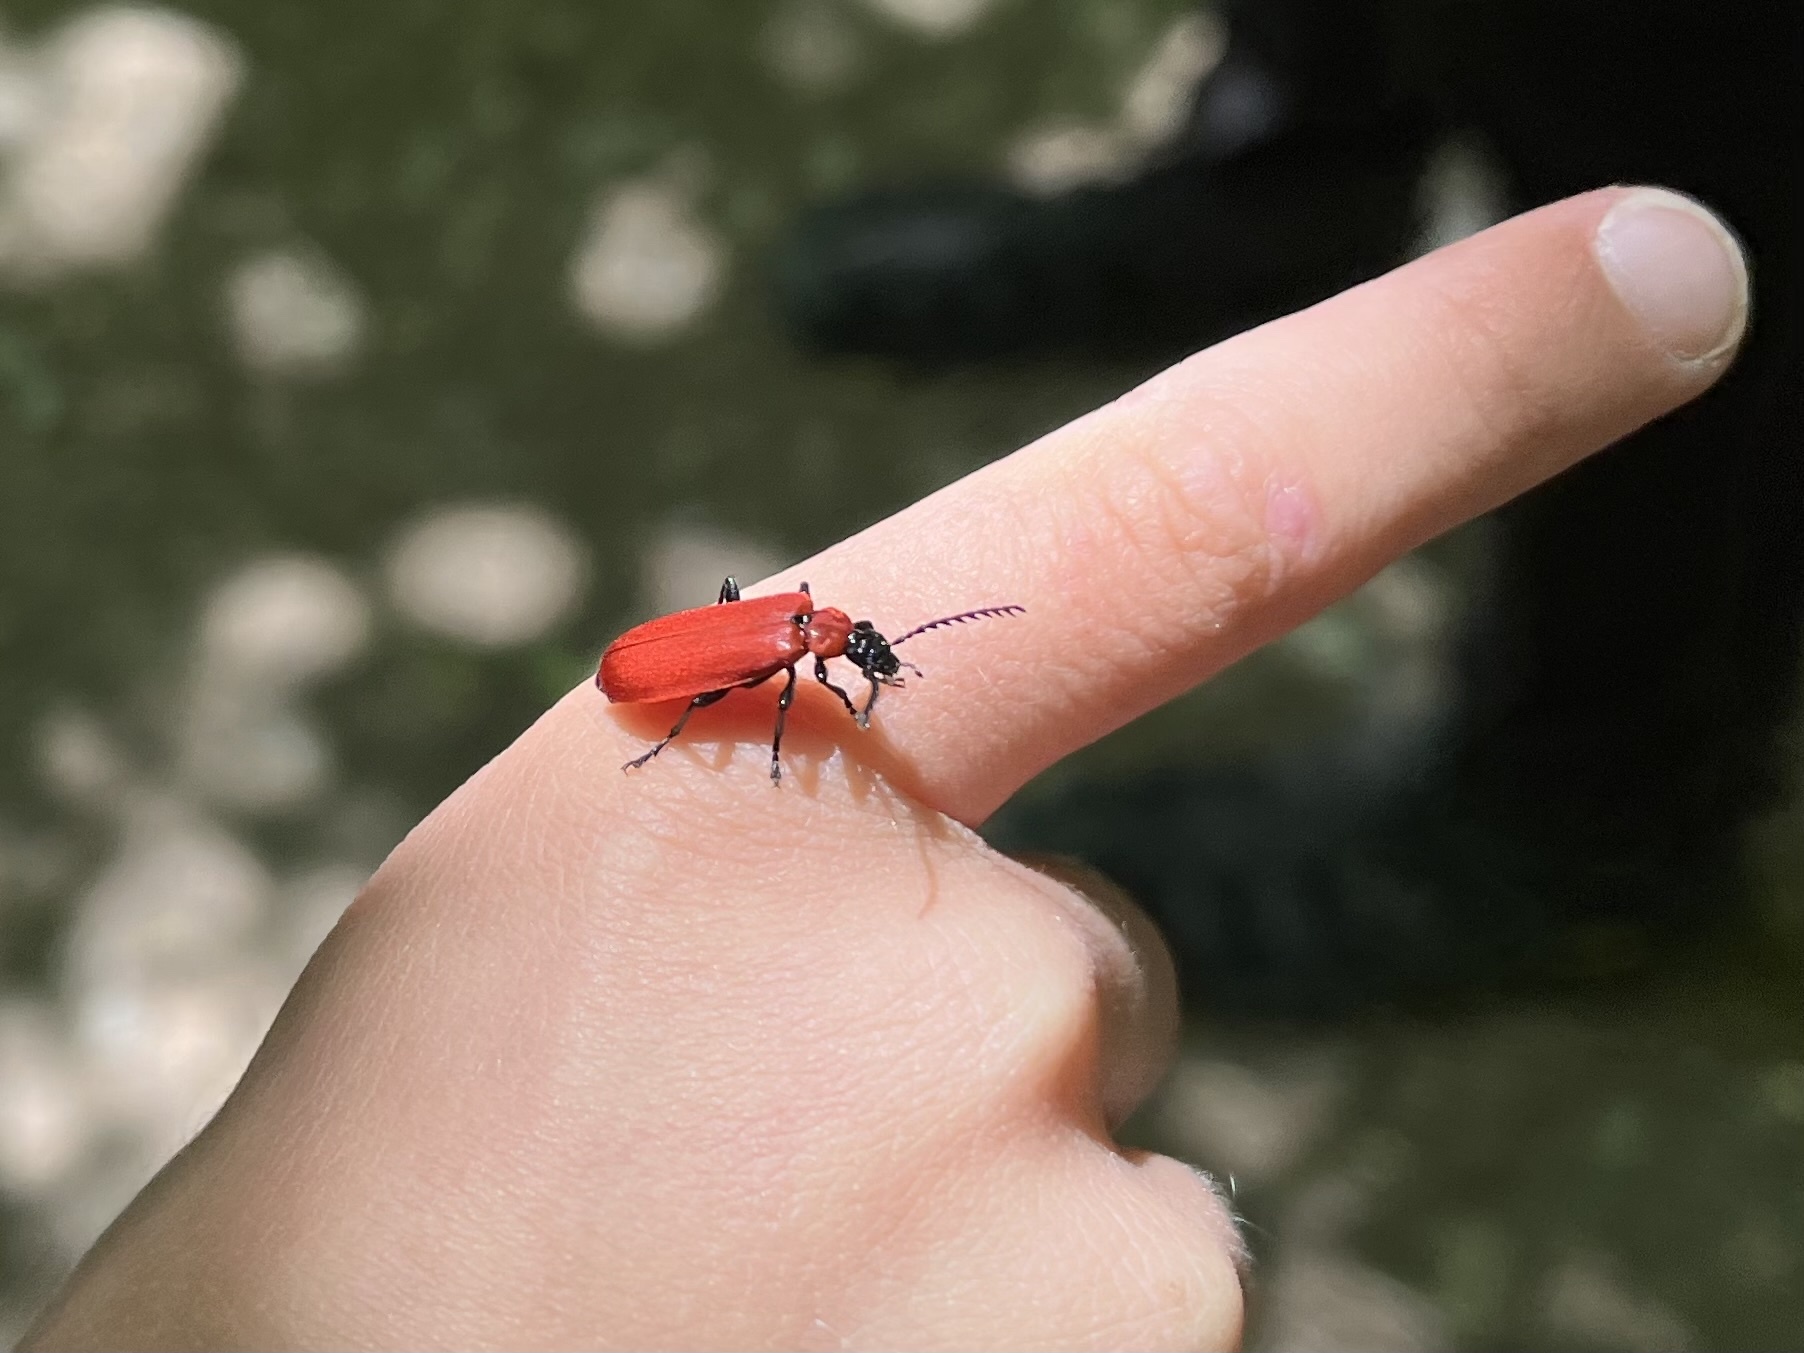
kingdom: Animalia
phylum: Arthropoda
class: Insecta
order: Coleoptera
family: Pyrochroidae
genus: Pyrochroa
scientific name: Pyrochroa coccinea
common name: Black-headed cardinal beetle
